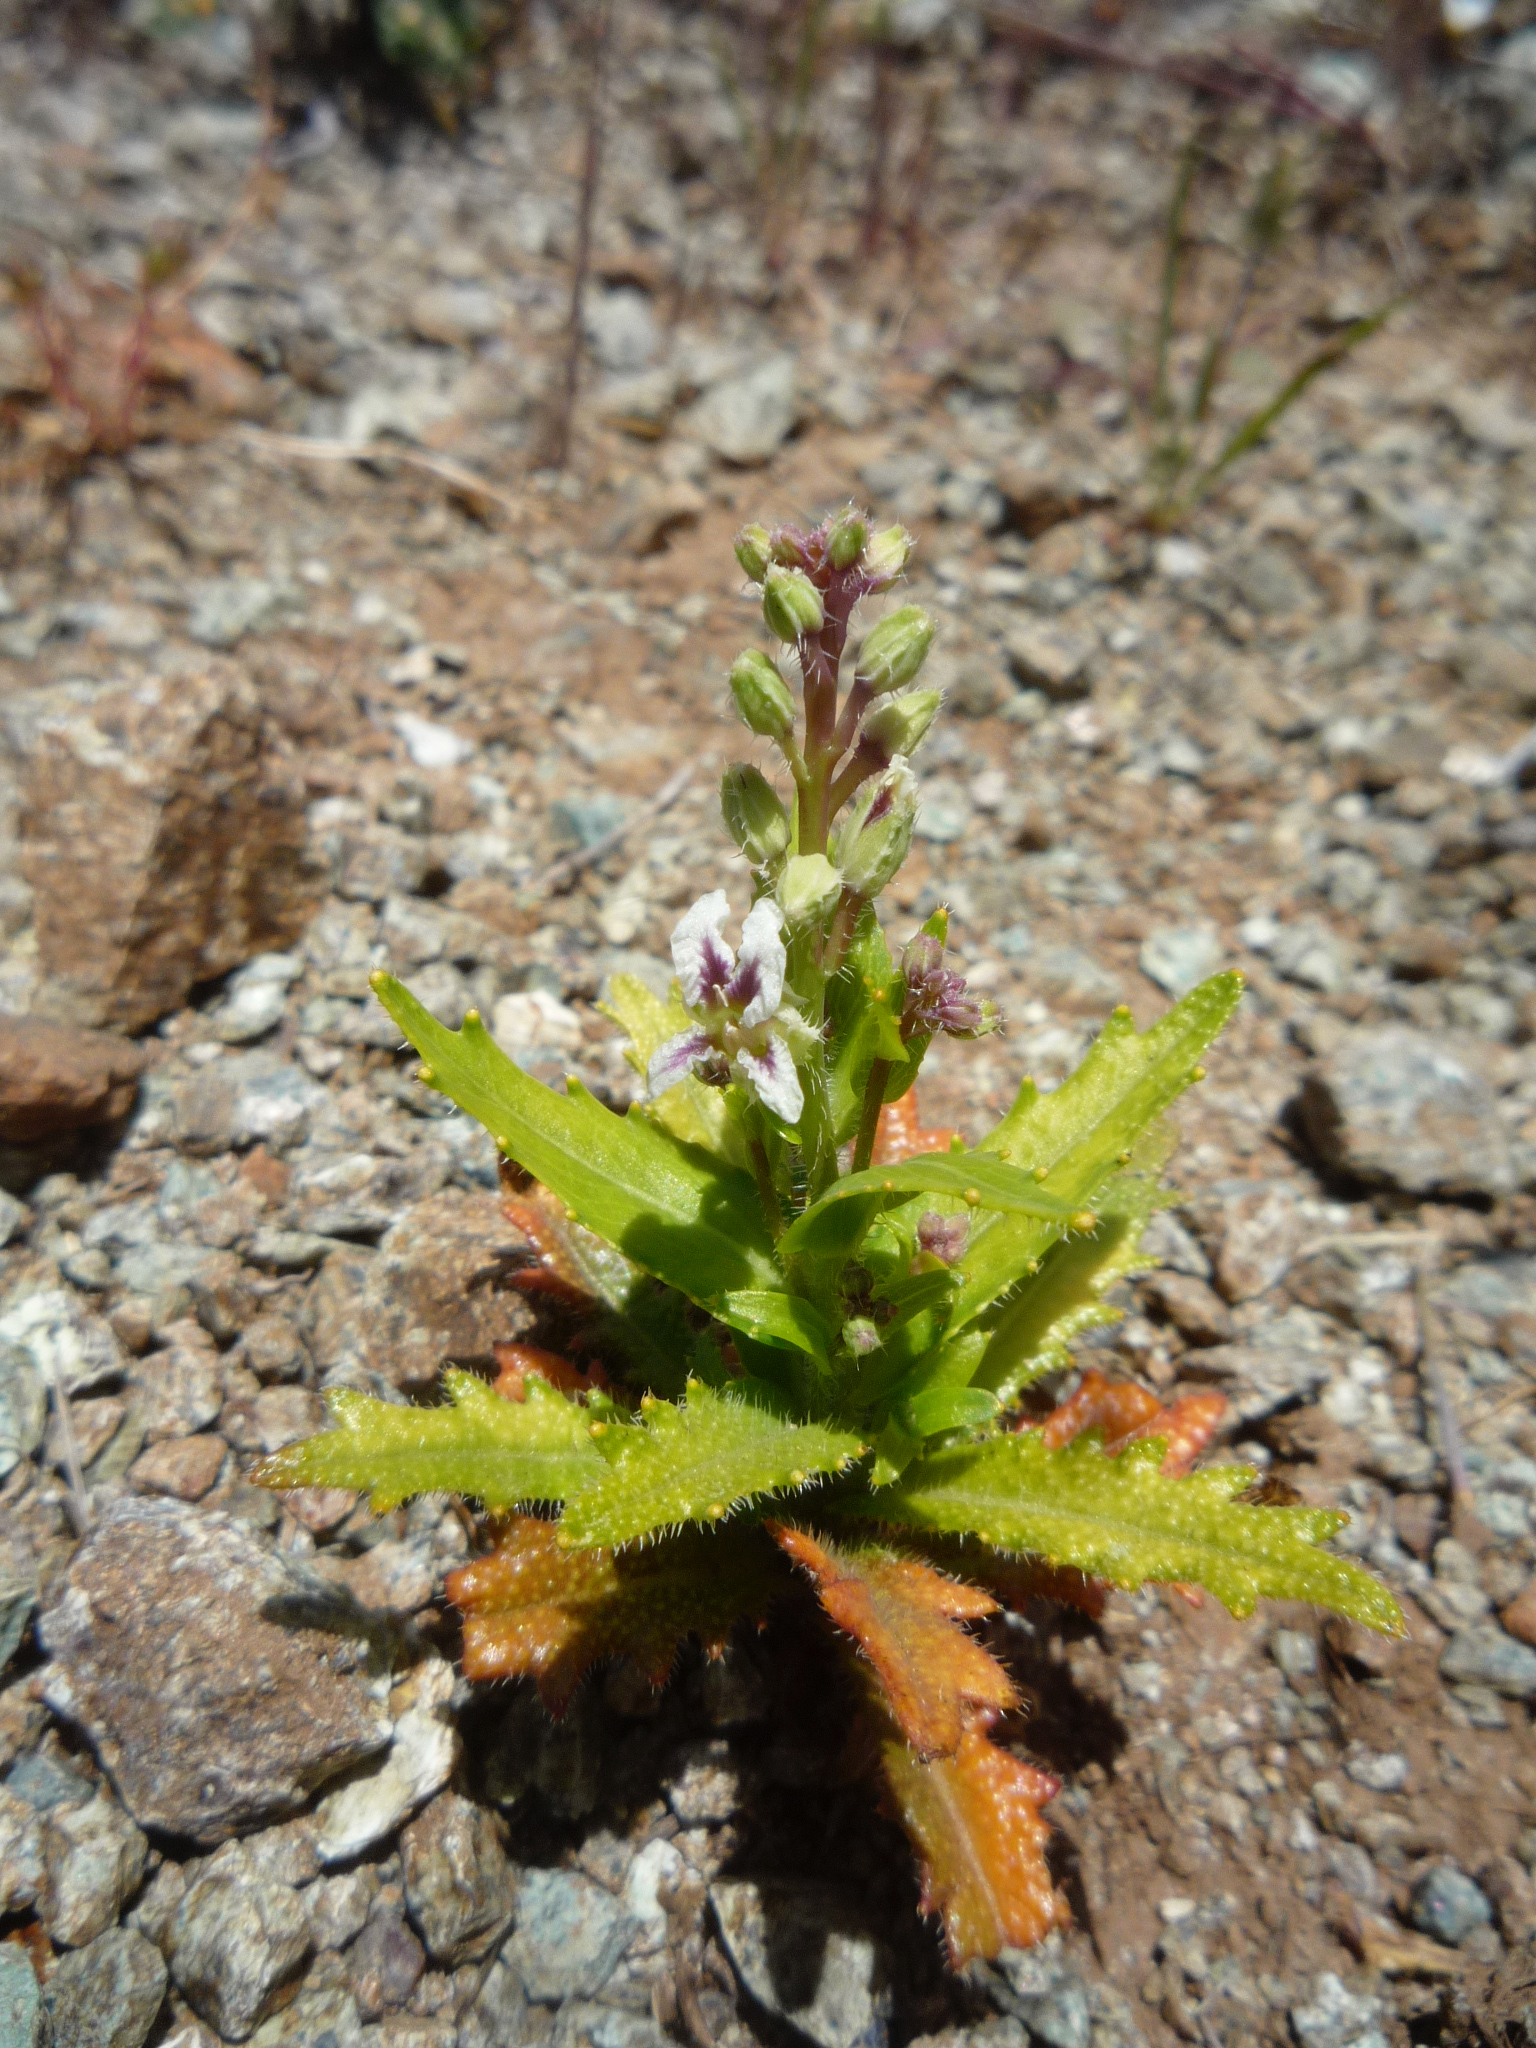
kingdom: Plantae
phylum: Tracheophyta
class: Magnoliopsida
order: Brassicales
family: Brassicaceae
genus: Streptanthus
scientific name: Streptanthus glandulosus
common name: Jewel-flower
